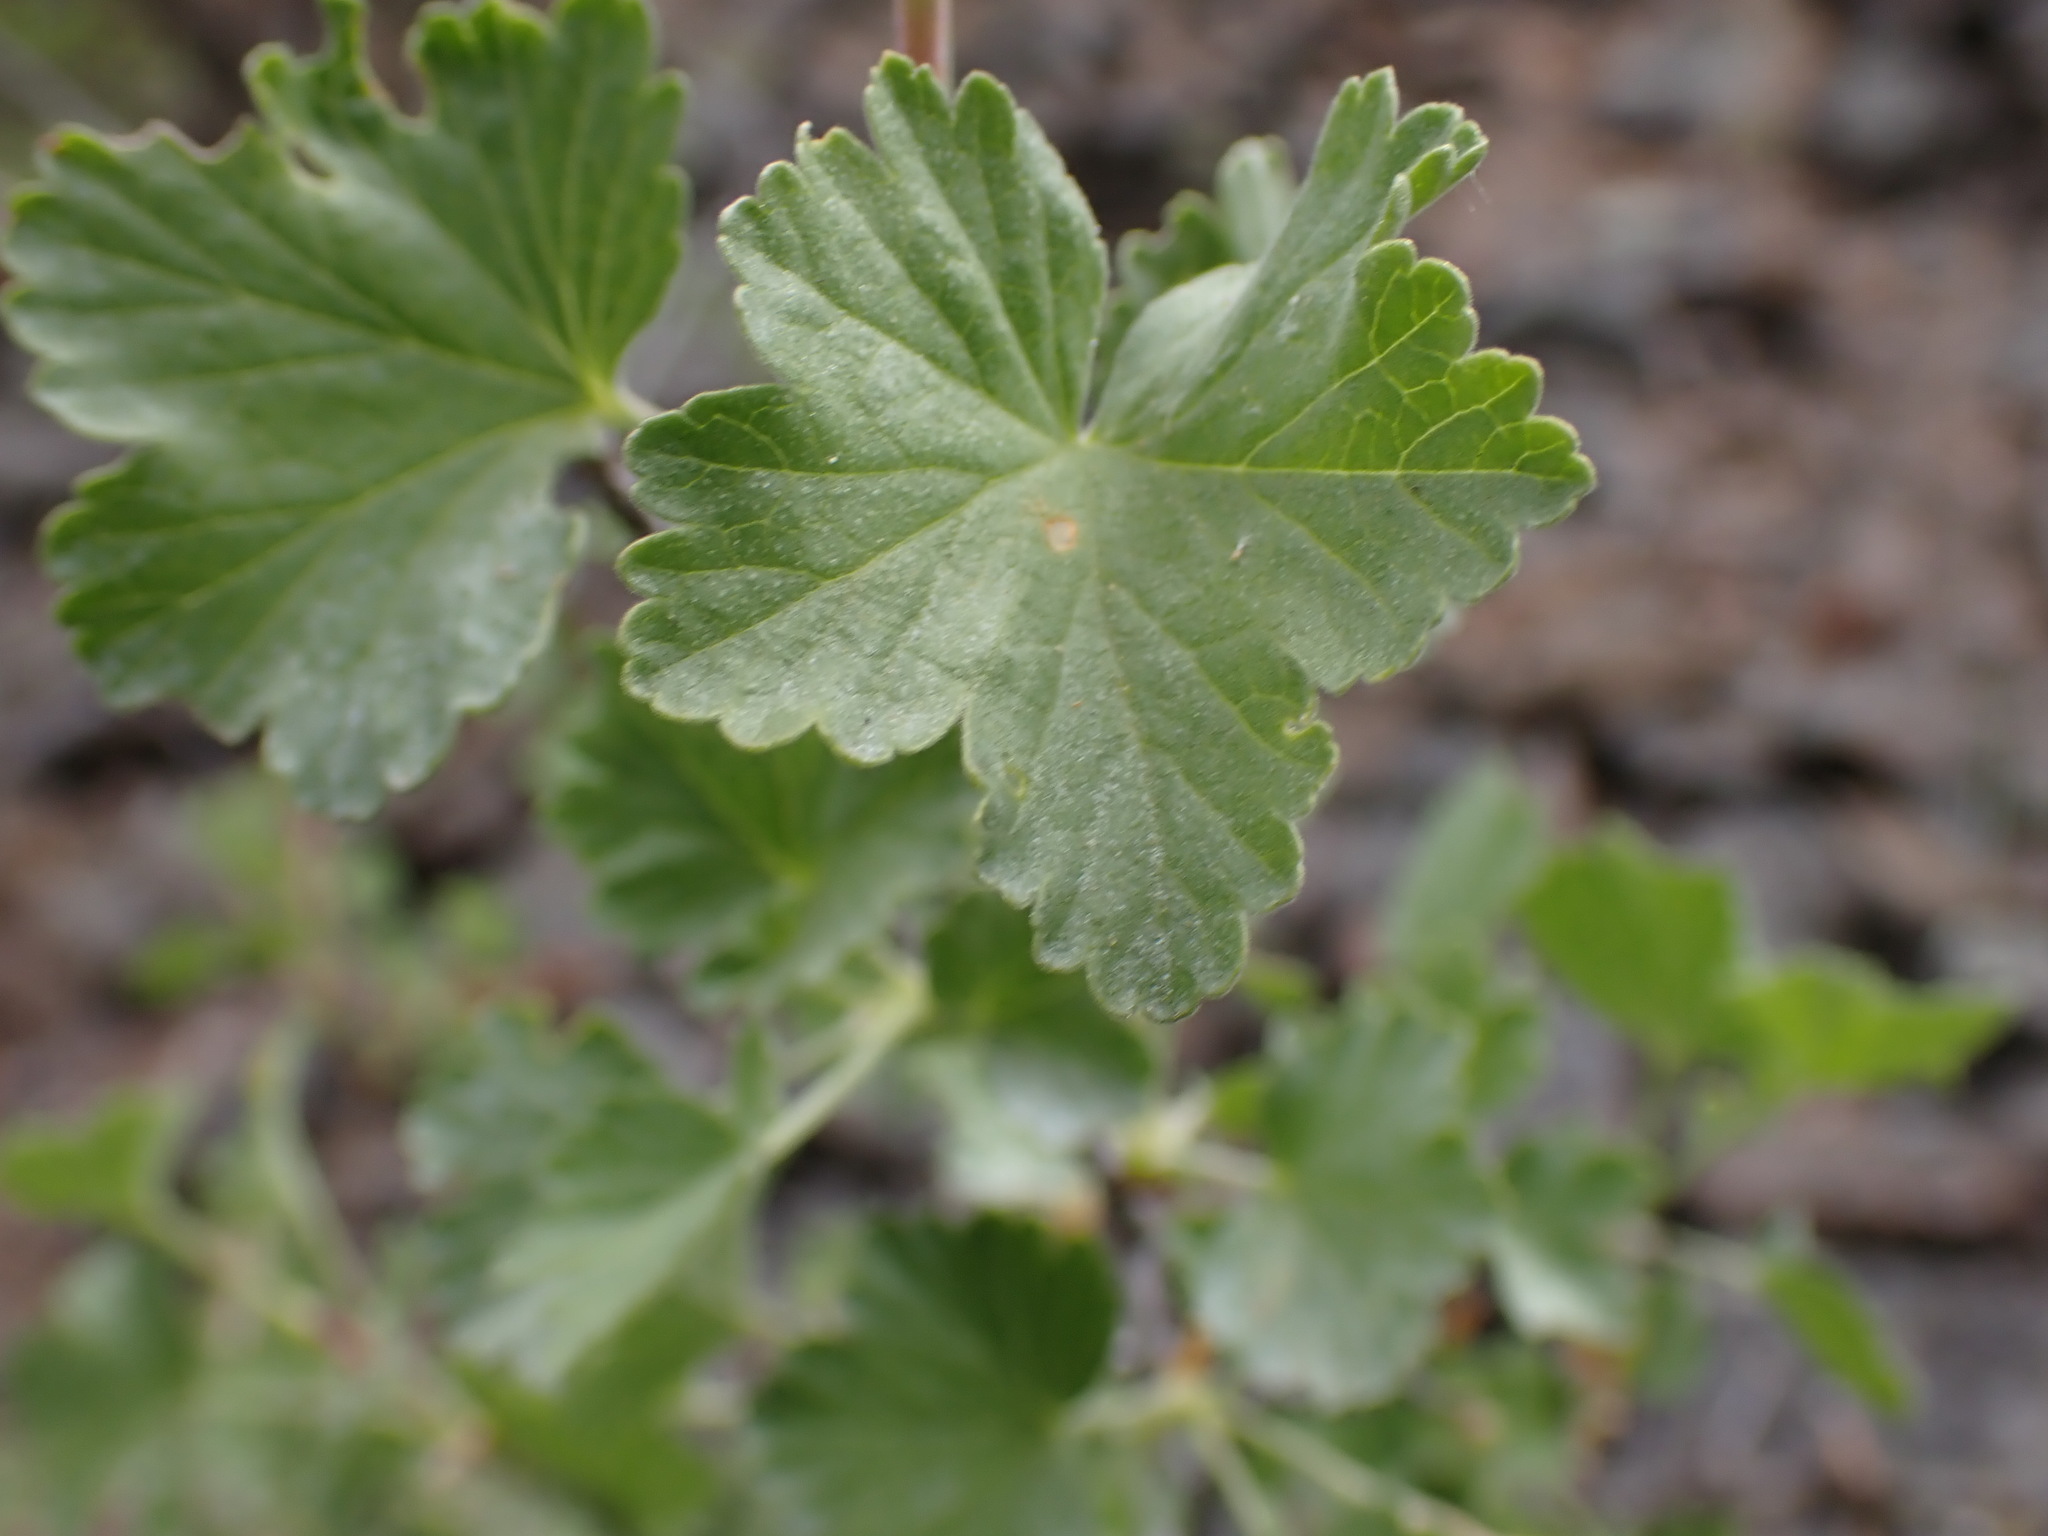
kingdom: Plantae
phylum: Tracheophyta
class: Magnoliopsida
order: Saxifragales
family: Grossulariaceae
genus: Ribes
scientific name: Ribes cereum
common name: Wax currant
